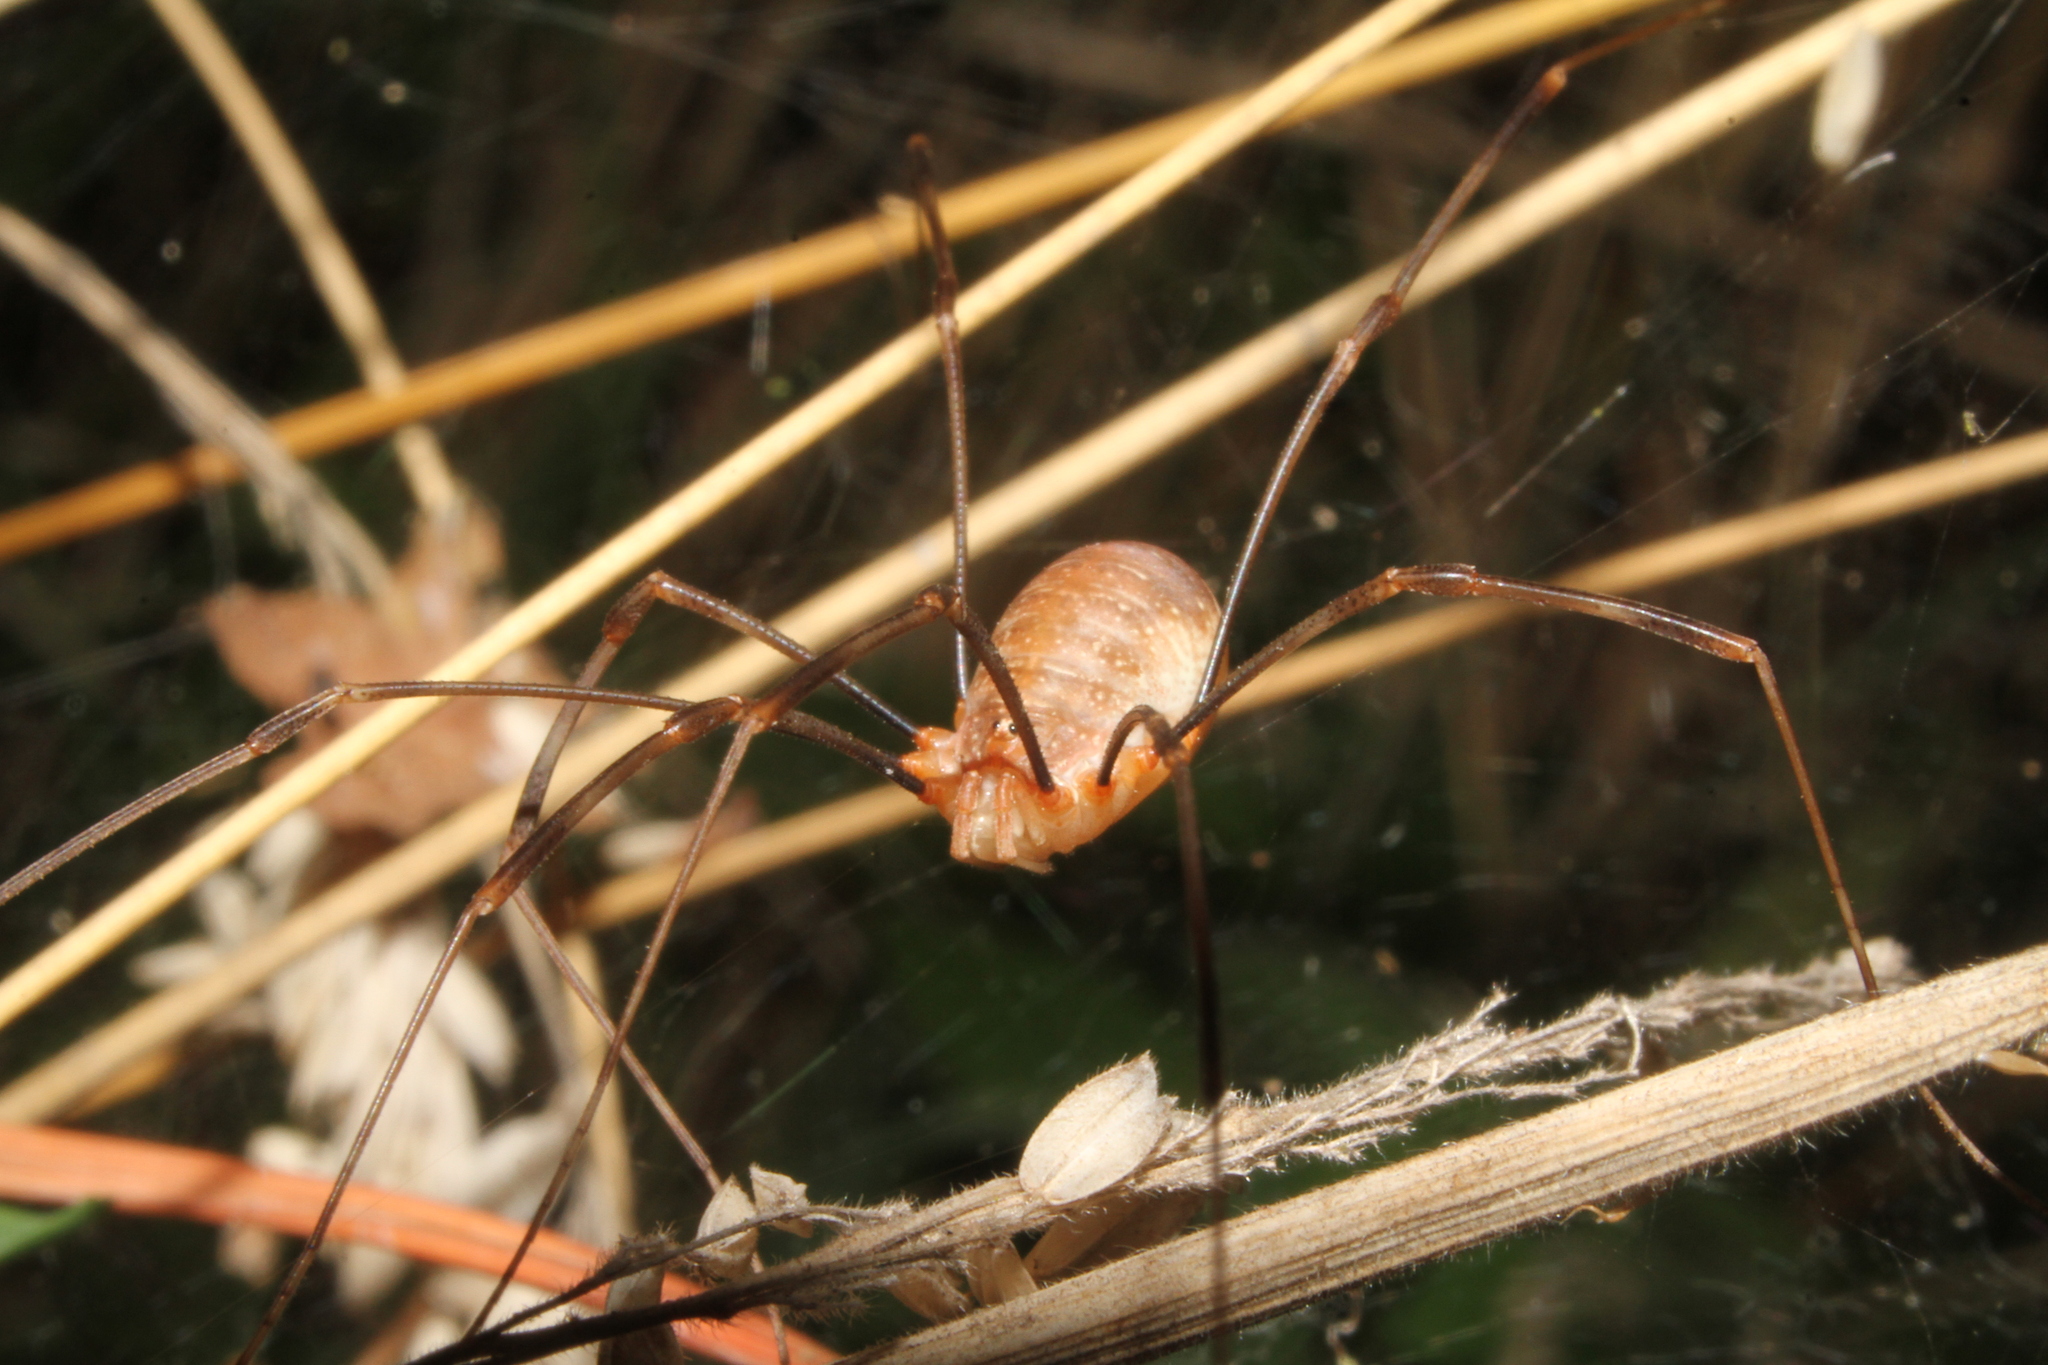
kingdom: Animalia
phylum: Arthropoda
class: Arachnida
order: Opiliones
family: Phalangiidae
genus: Opilio
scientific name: Opilio canestrinii
